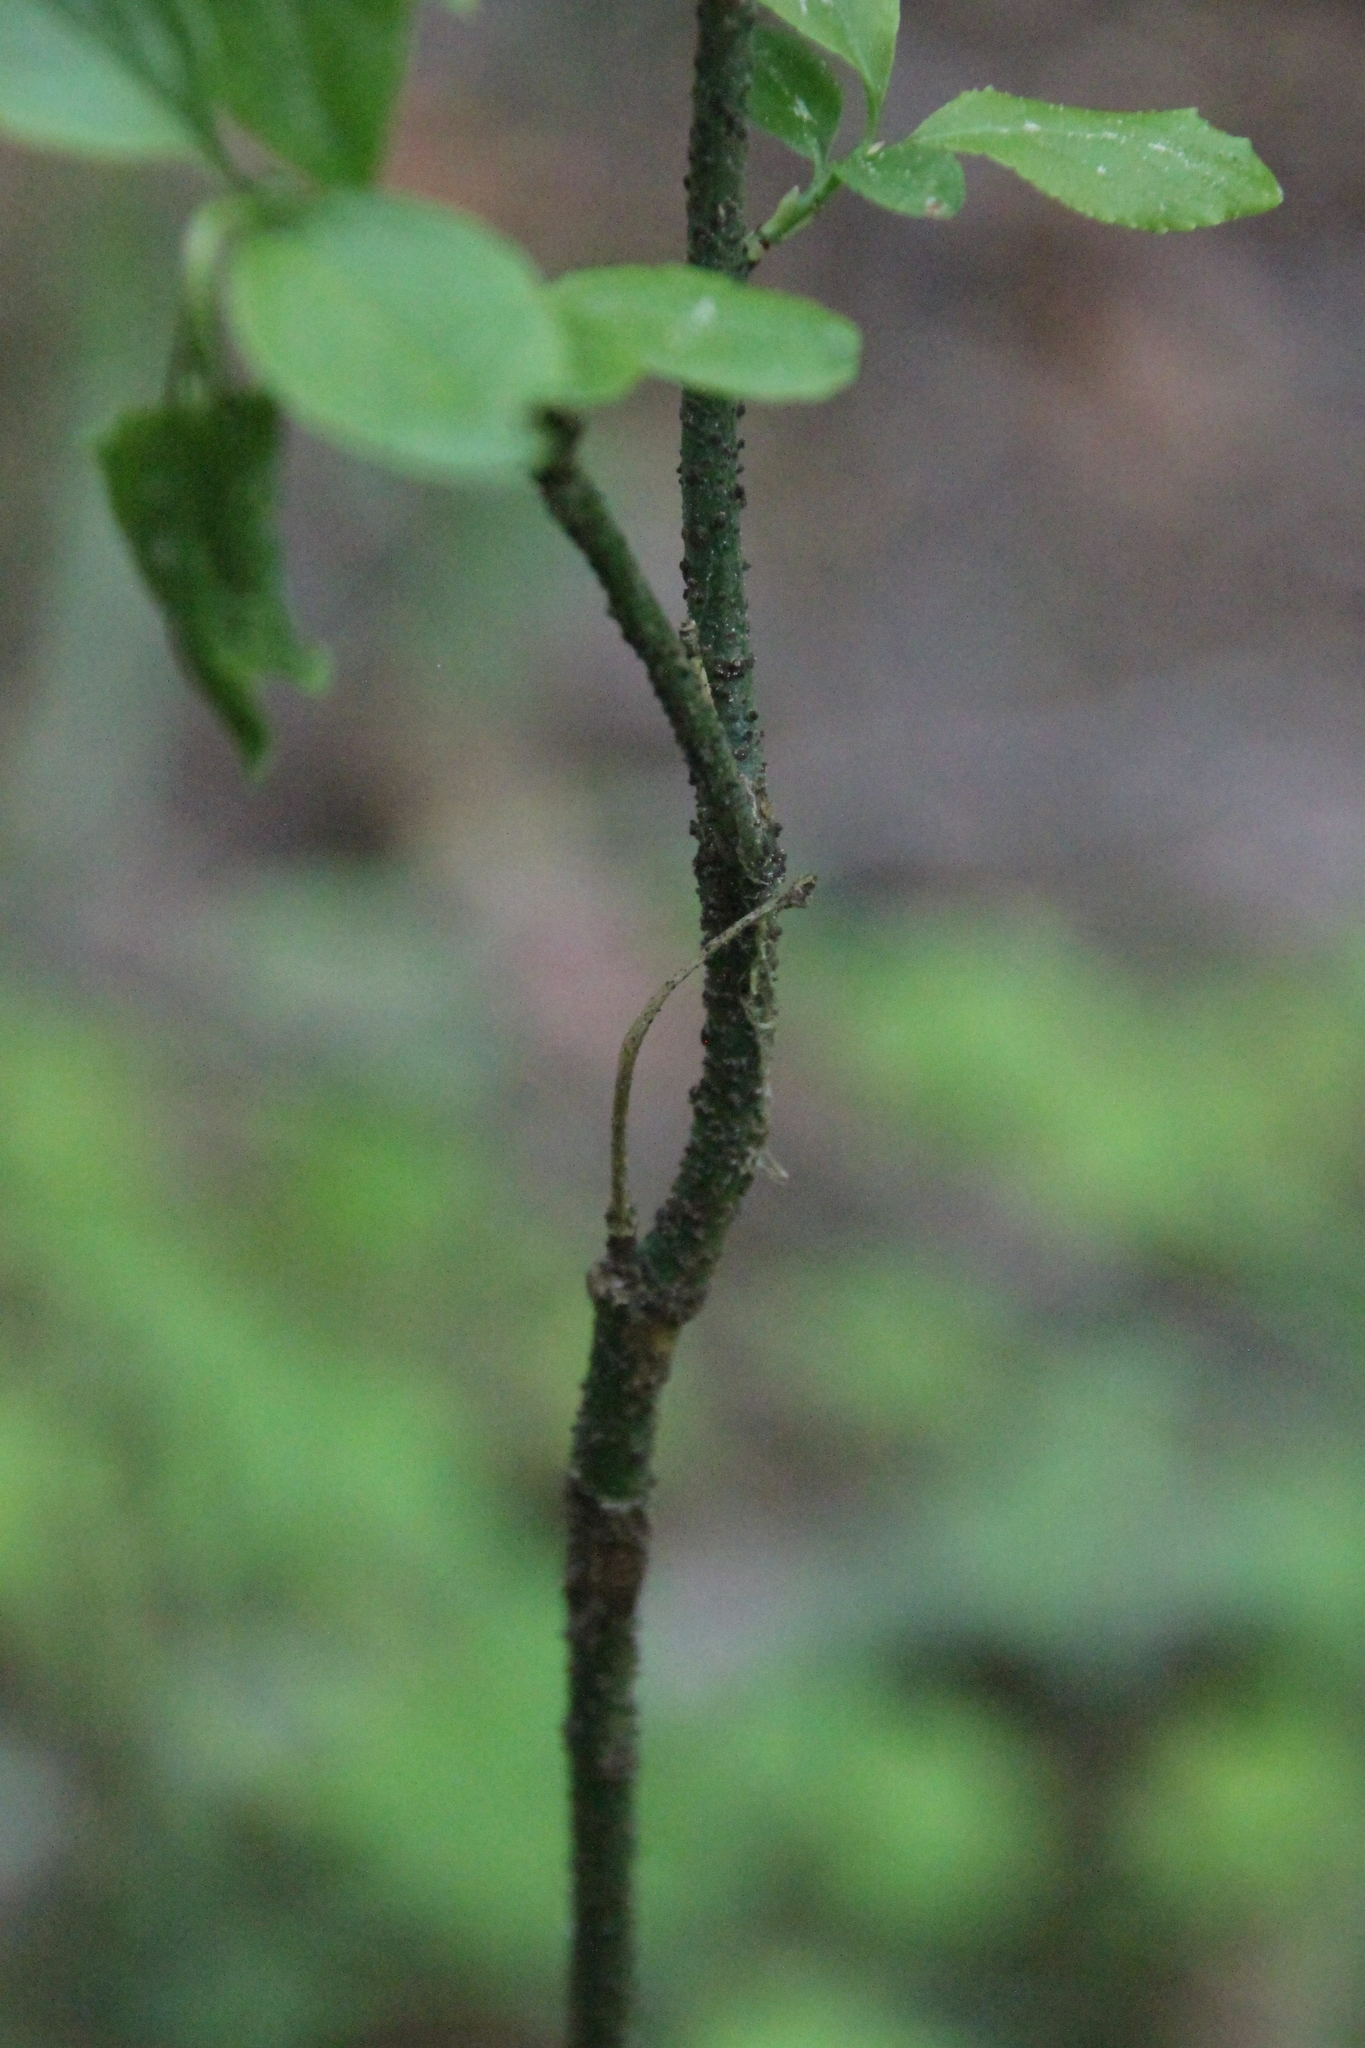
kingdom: Plantae
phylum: Tracheophyta
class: Magnoliopsida
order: Celastrales
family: Celastraceae
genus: Euonymus
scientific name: Euonymus verrucosus
